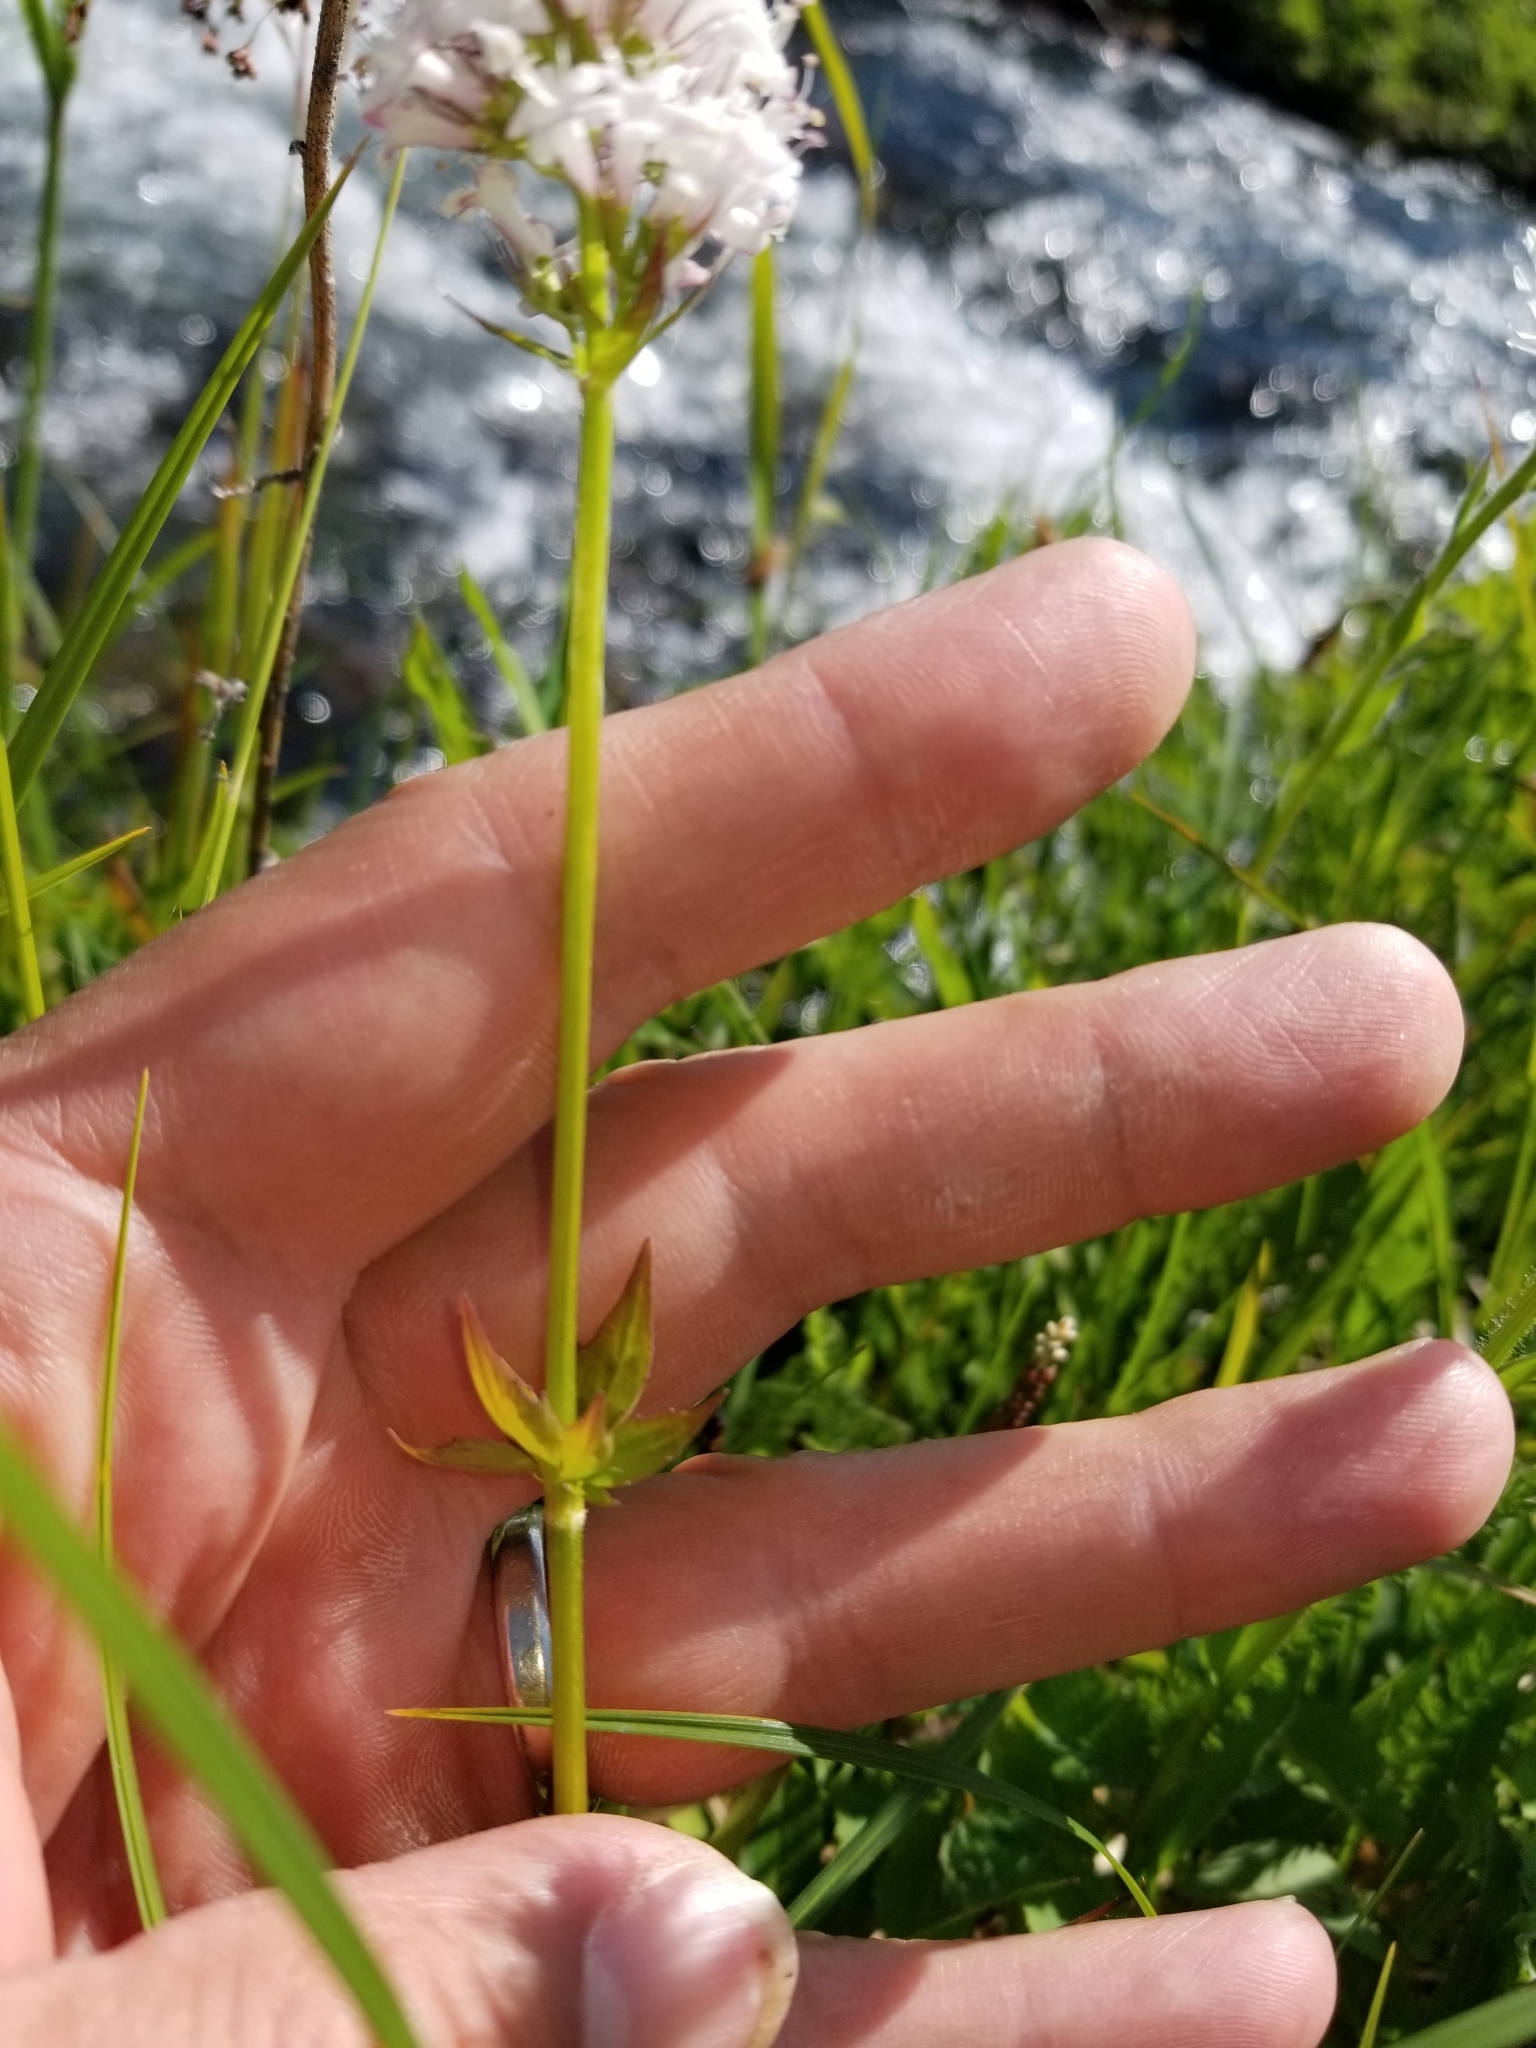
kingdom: Plantae
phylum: Tracheophyta
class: Magnoliopsida
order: Dipsacales
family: Caprifoliaceae
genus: Valeriana
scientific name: Valeriana capitata
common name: Capitate valerian
